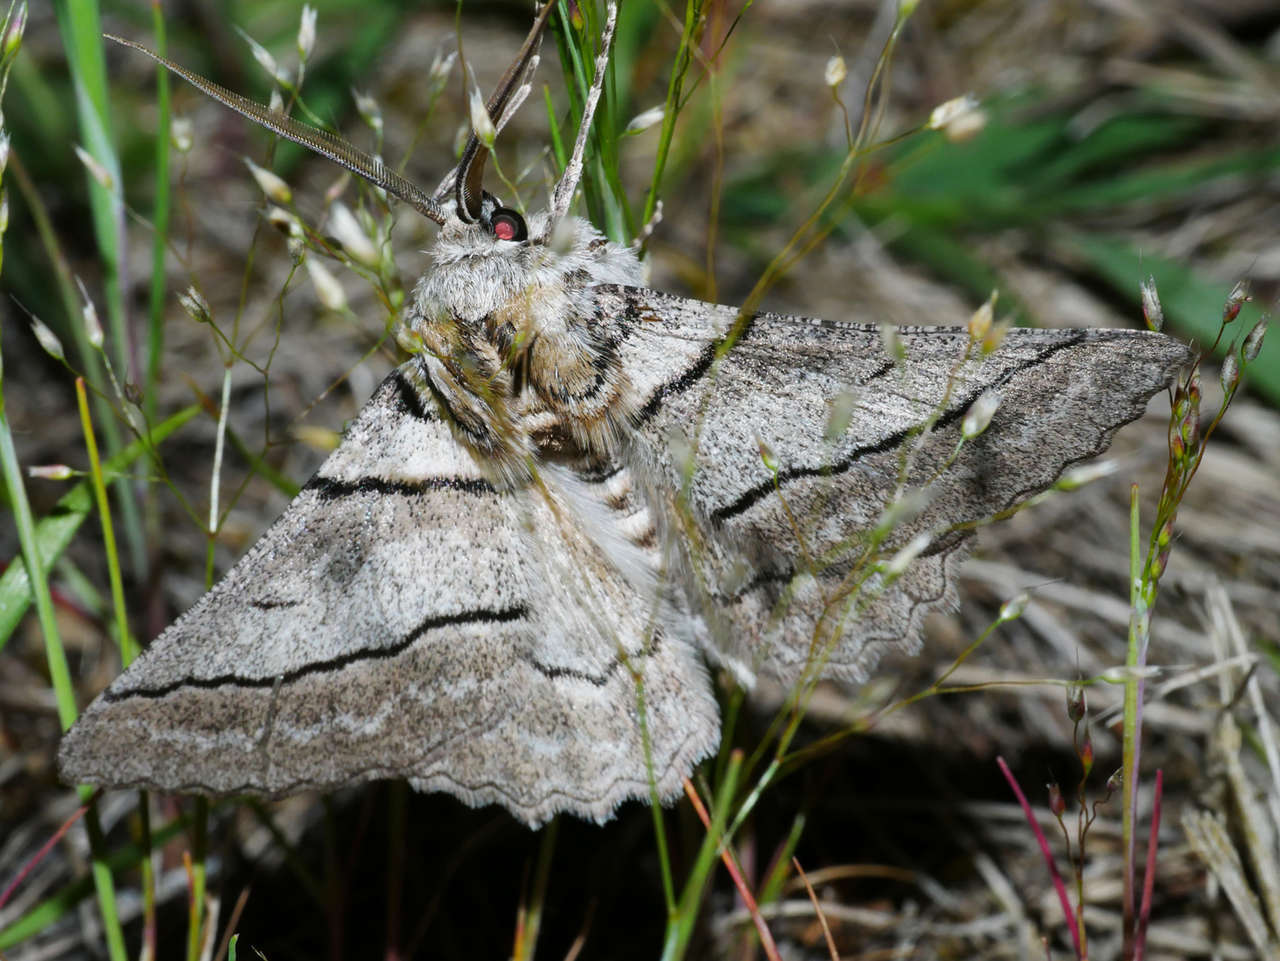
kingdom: Animalia
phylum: Arthropoda
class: Insecta
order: Lepidoptera
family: Geometridae
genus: Hypobapta
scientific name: Hypobapta tachyhalotaria
